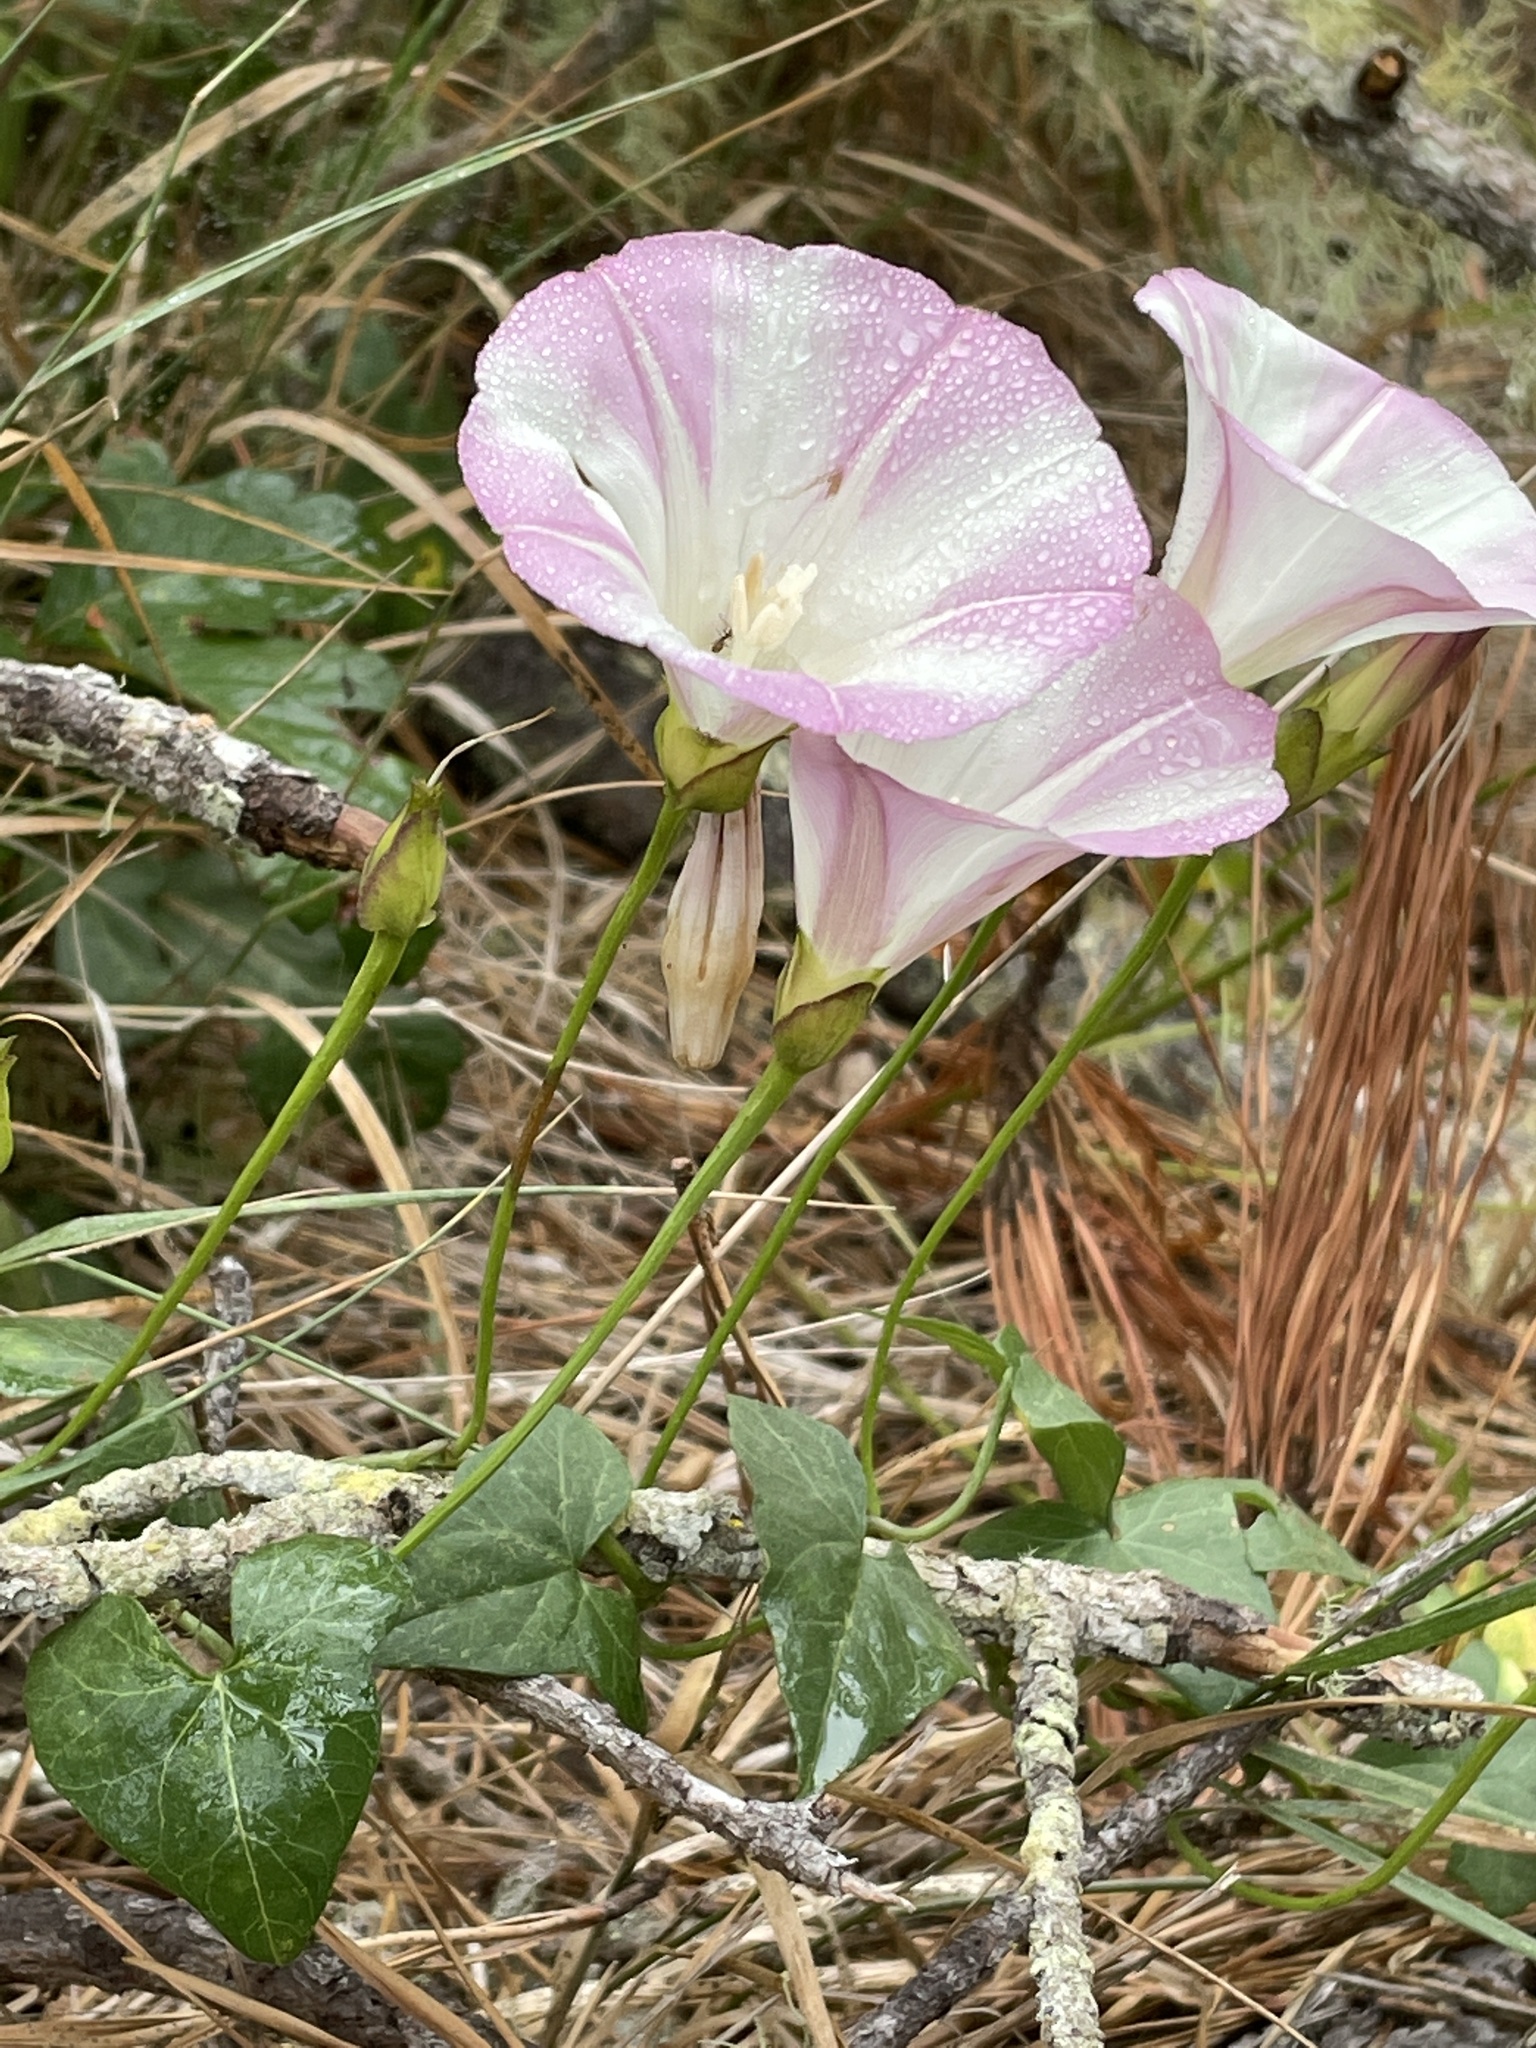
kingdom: Plantae
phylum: Tracheophyta
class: Magnoliopsida
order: Solanales
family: Convolvulaceae
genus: Calystegia
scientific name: Calystegia macrostegia
